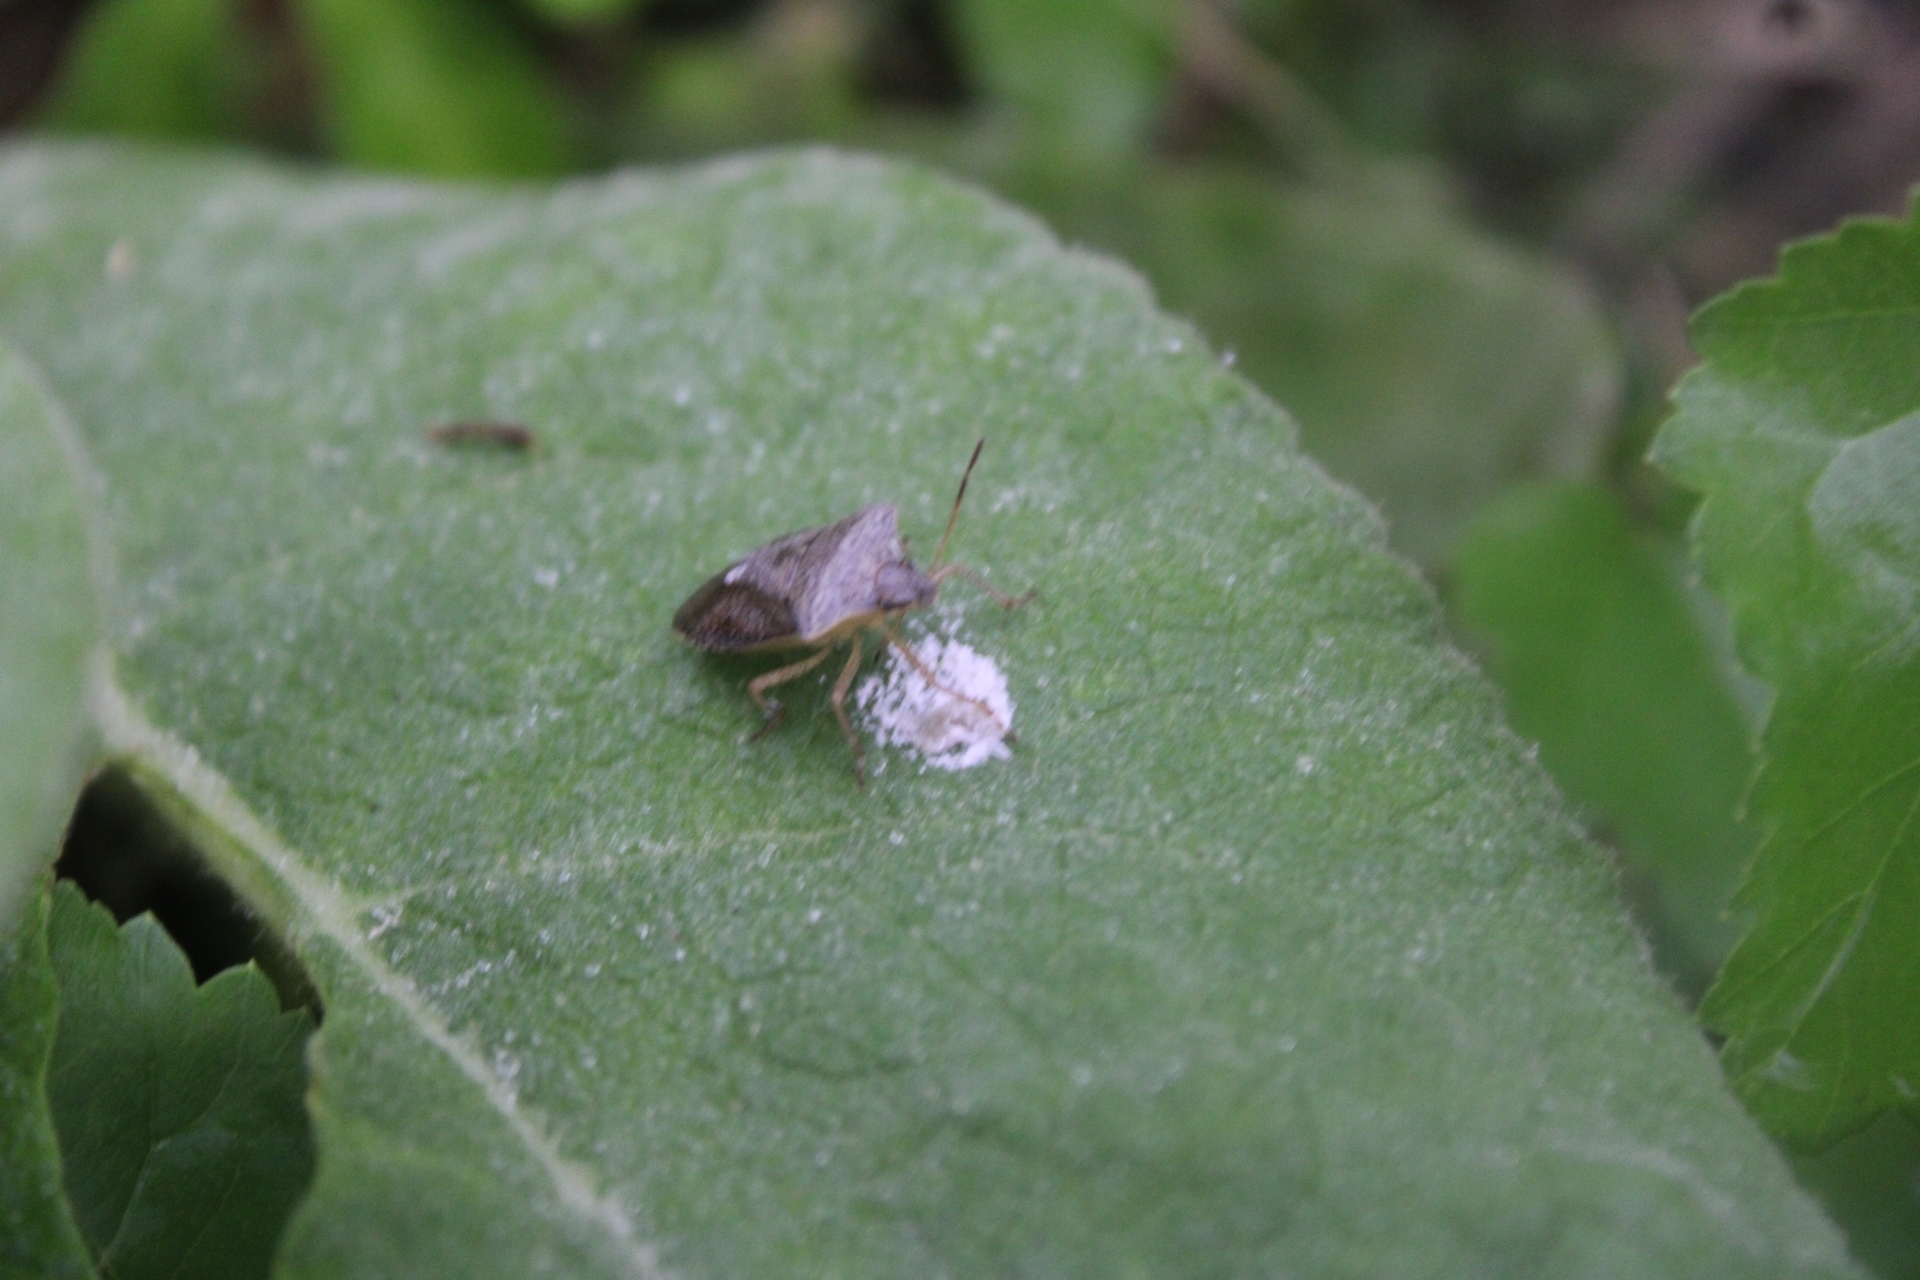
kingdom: Animalia
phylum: Arthropoda
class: Insecta
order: Hemiptera
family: Pentatomidae
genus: Euschistus
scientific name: Euschistus
